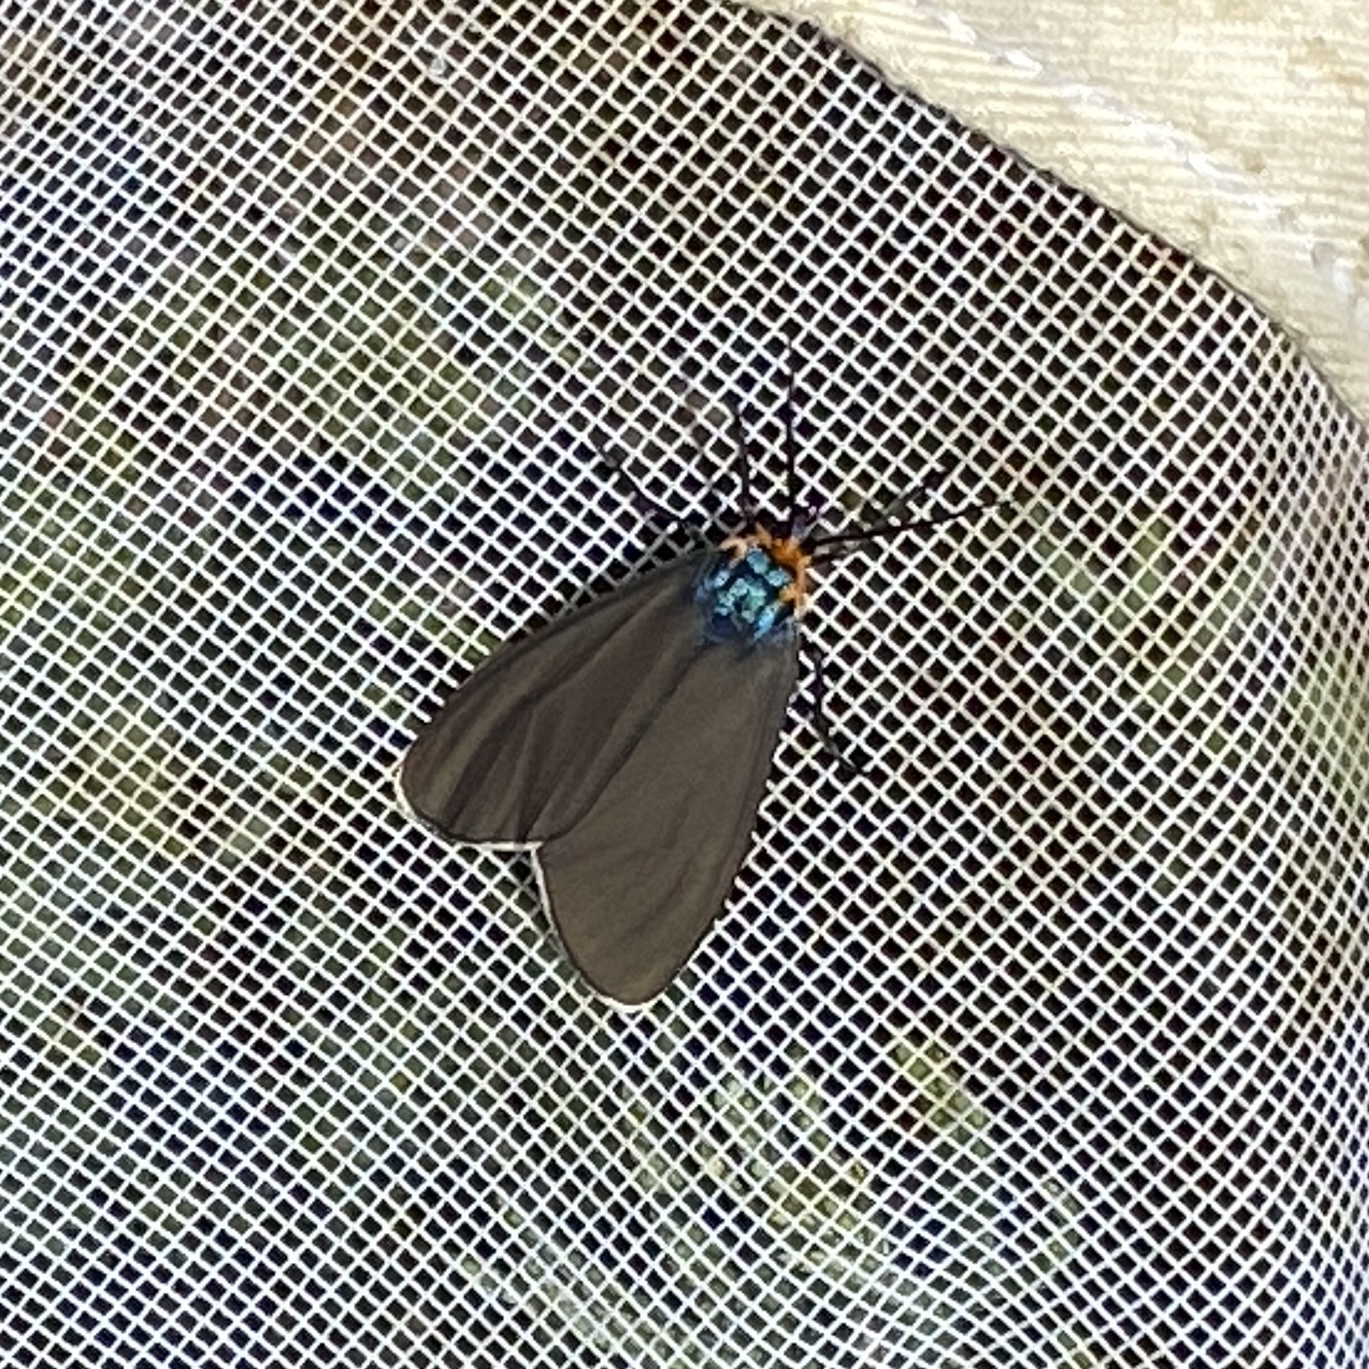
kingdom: Animalia
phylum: Arthropoda
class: Insecta
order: Lepidoptera
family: Erebidae
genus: Ctenucha
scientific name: Ctenucha virginica
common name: Virginia ctenucha moth
